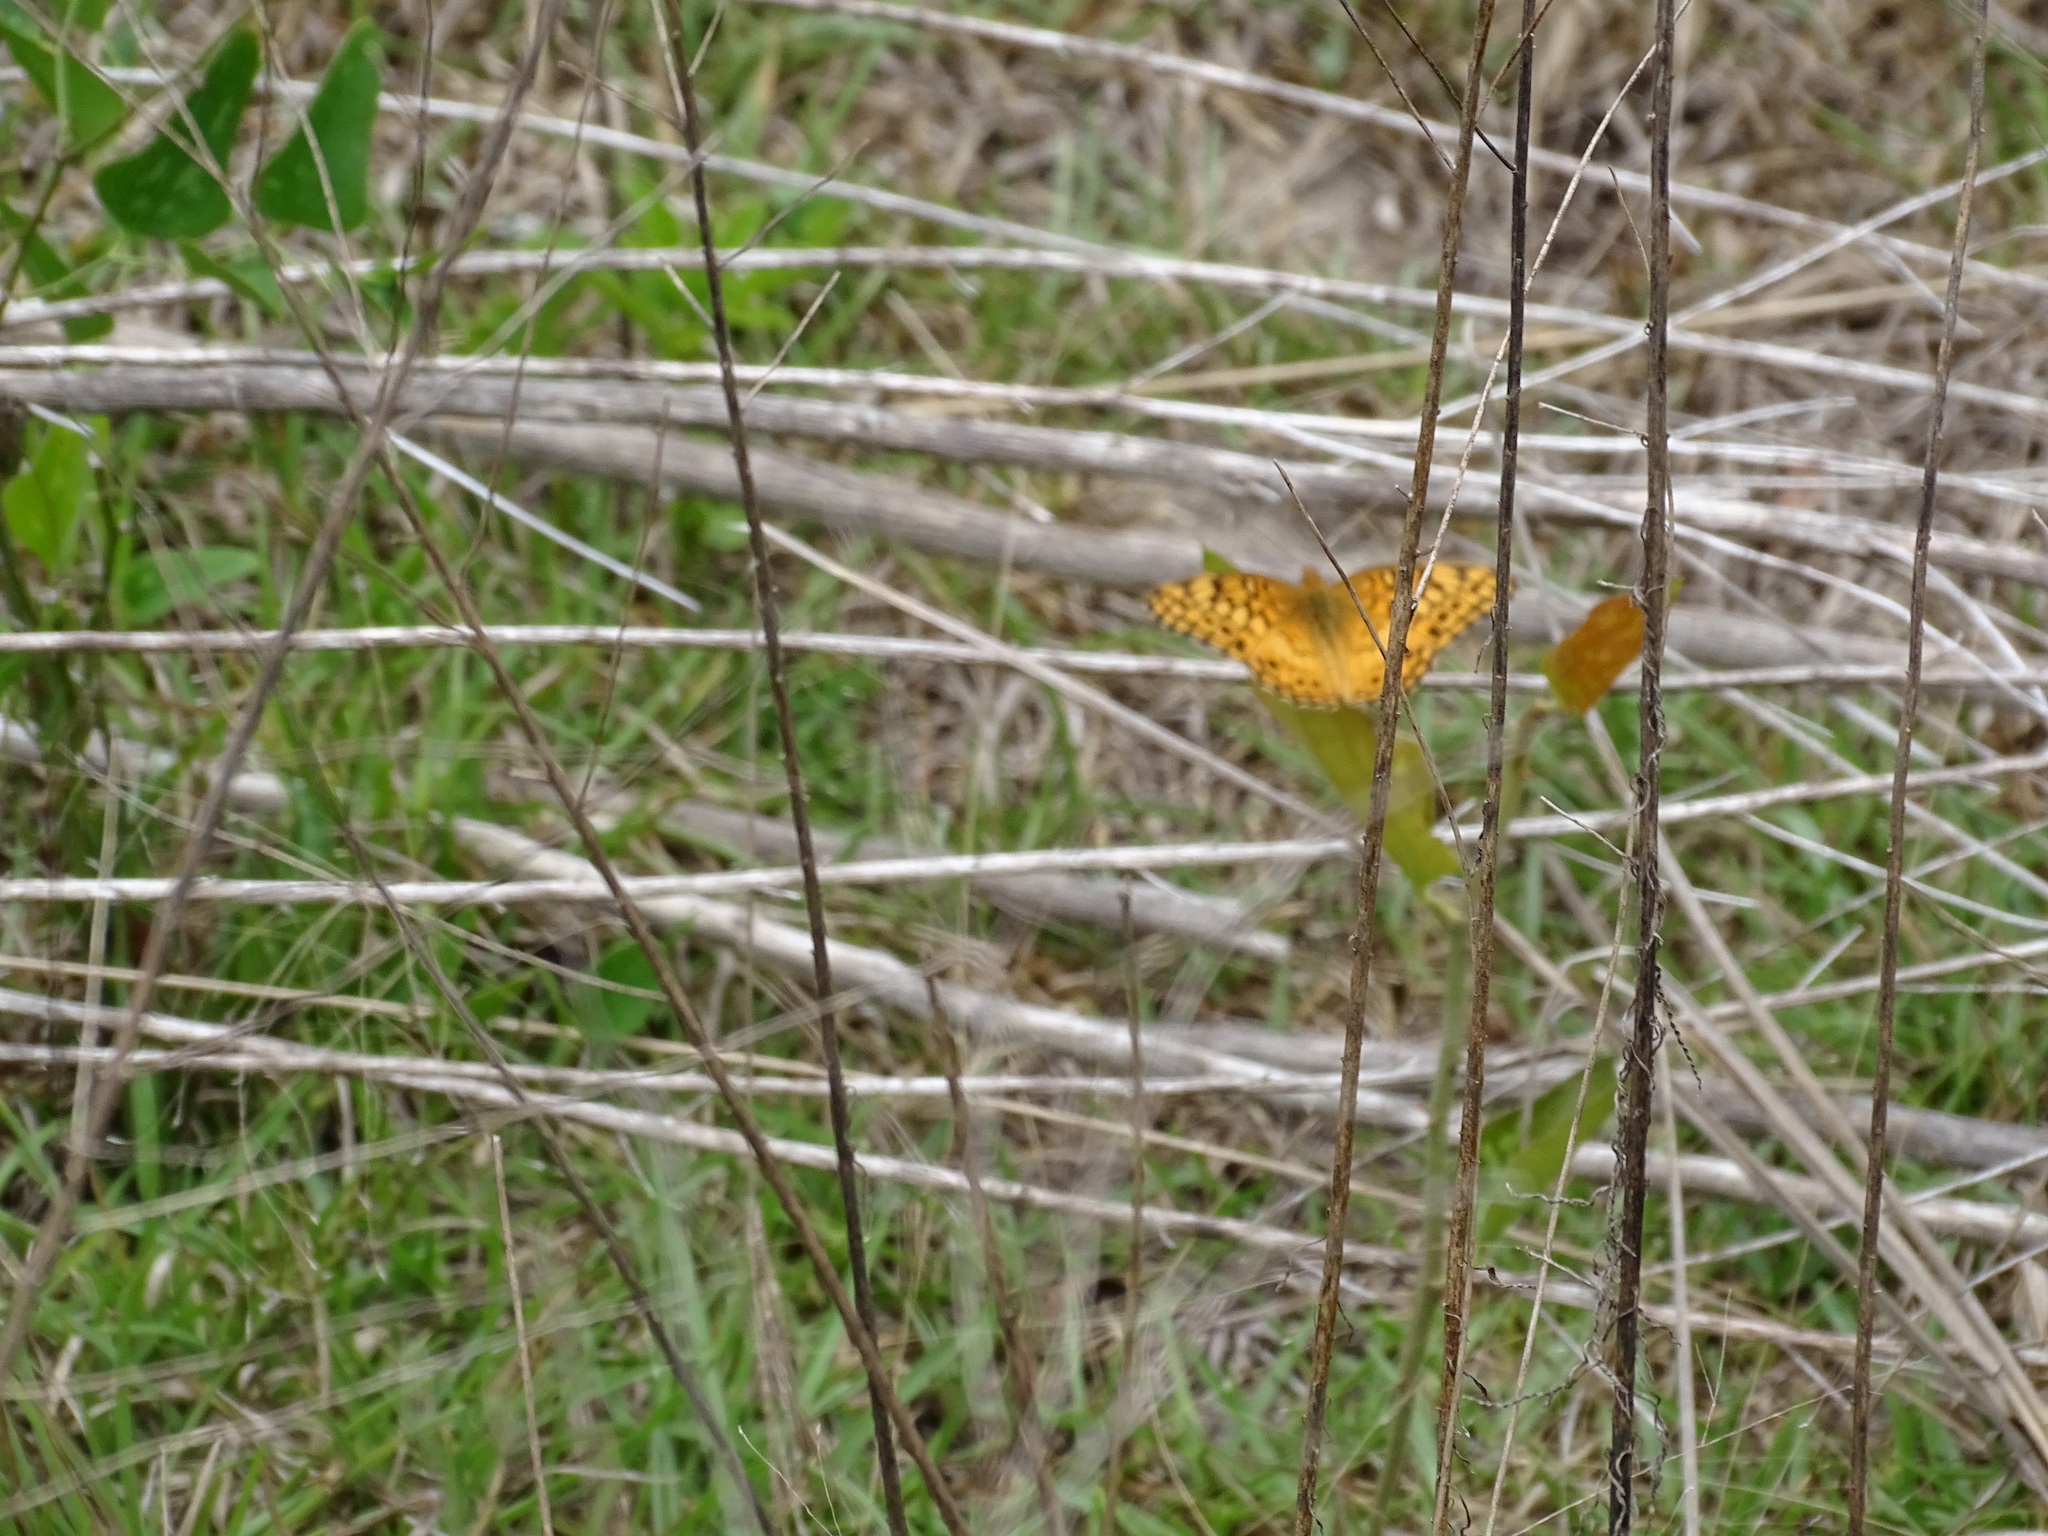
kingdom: Animalia
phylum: Arthropoda
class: Insecta
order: Lepidoptera
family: Nymphalidae
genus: Euptoieta
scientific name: Euptoieta claudia
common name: Variegated fritillary
